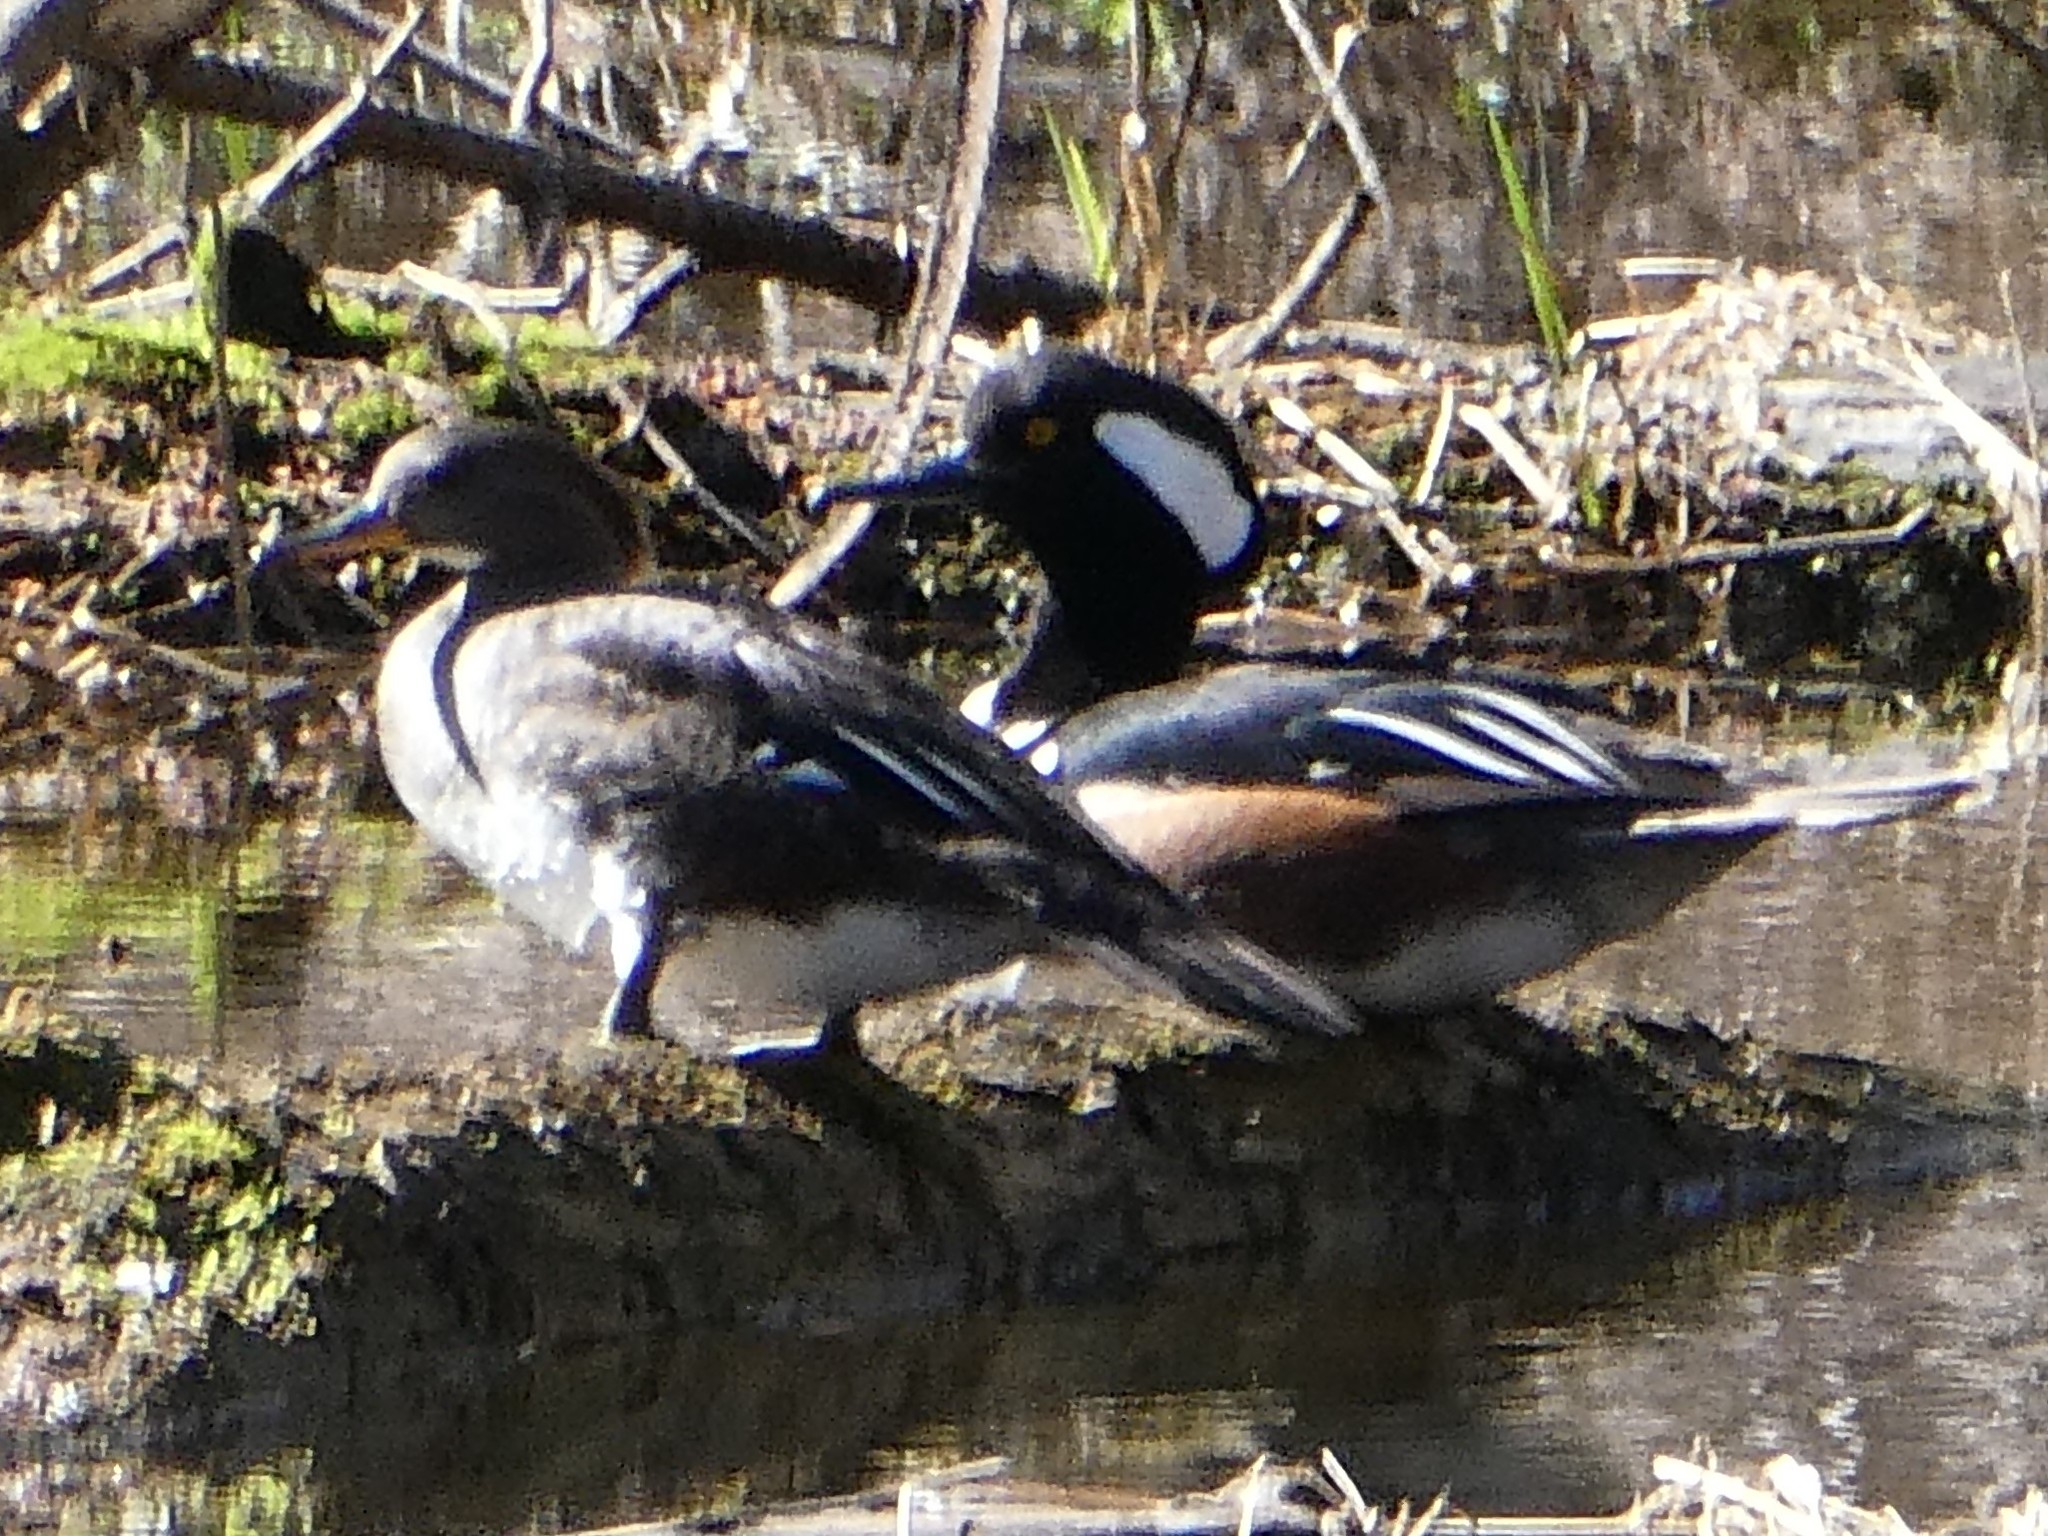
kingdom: Animalia
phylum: Chordata
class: Aves
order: Anseriformes
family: Anatidae
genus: Lophodytes
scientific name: Lophodytes cucullatus
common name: Hooded merganser
